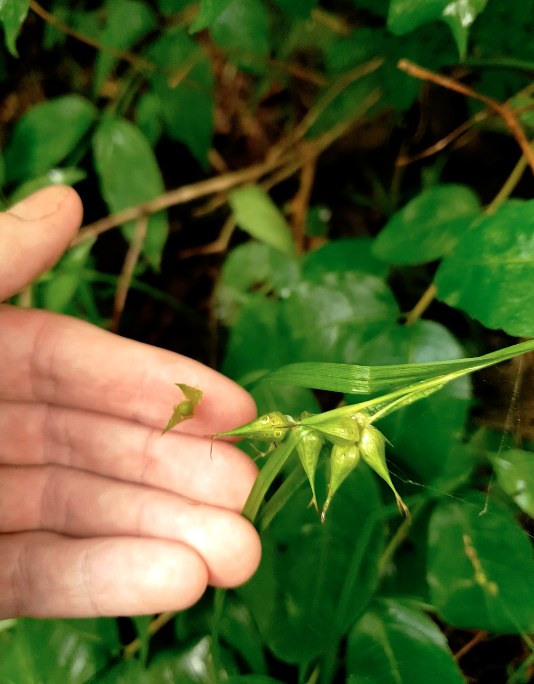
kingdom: Plantae
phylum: Tracheophyta
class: Liliopsida
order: Poales
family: Cyperaceae
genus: Carex
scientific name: Carex intumescens
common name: Greater bladder sedge
